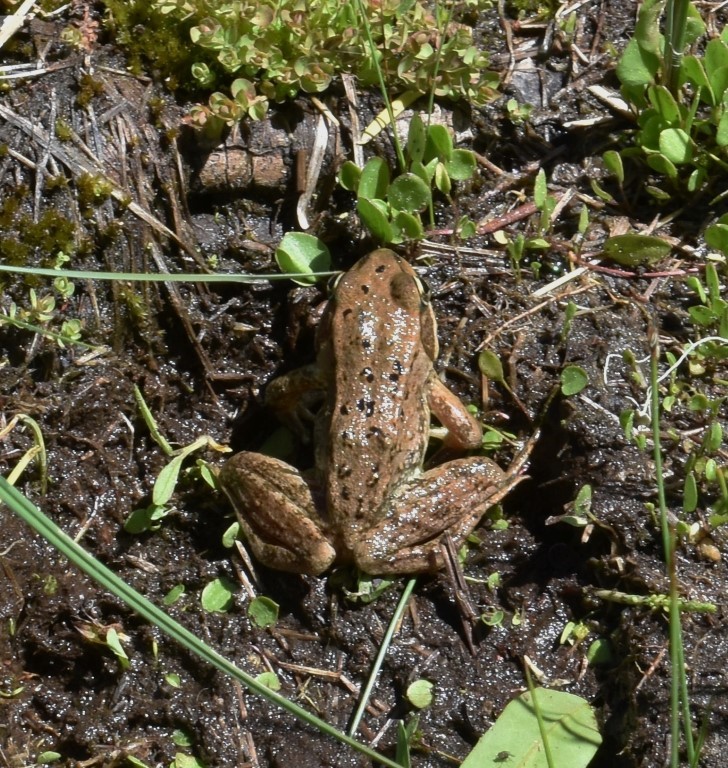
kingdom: Animalia
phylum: Chordata
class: Amphibia
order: Anura
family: Ranidae
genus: Rana
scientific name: Rana cascadae
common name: Cascades frog
